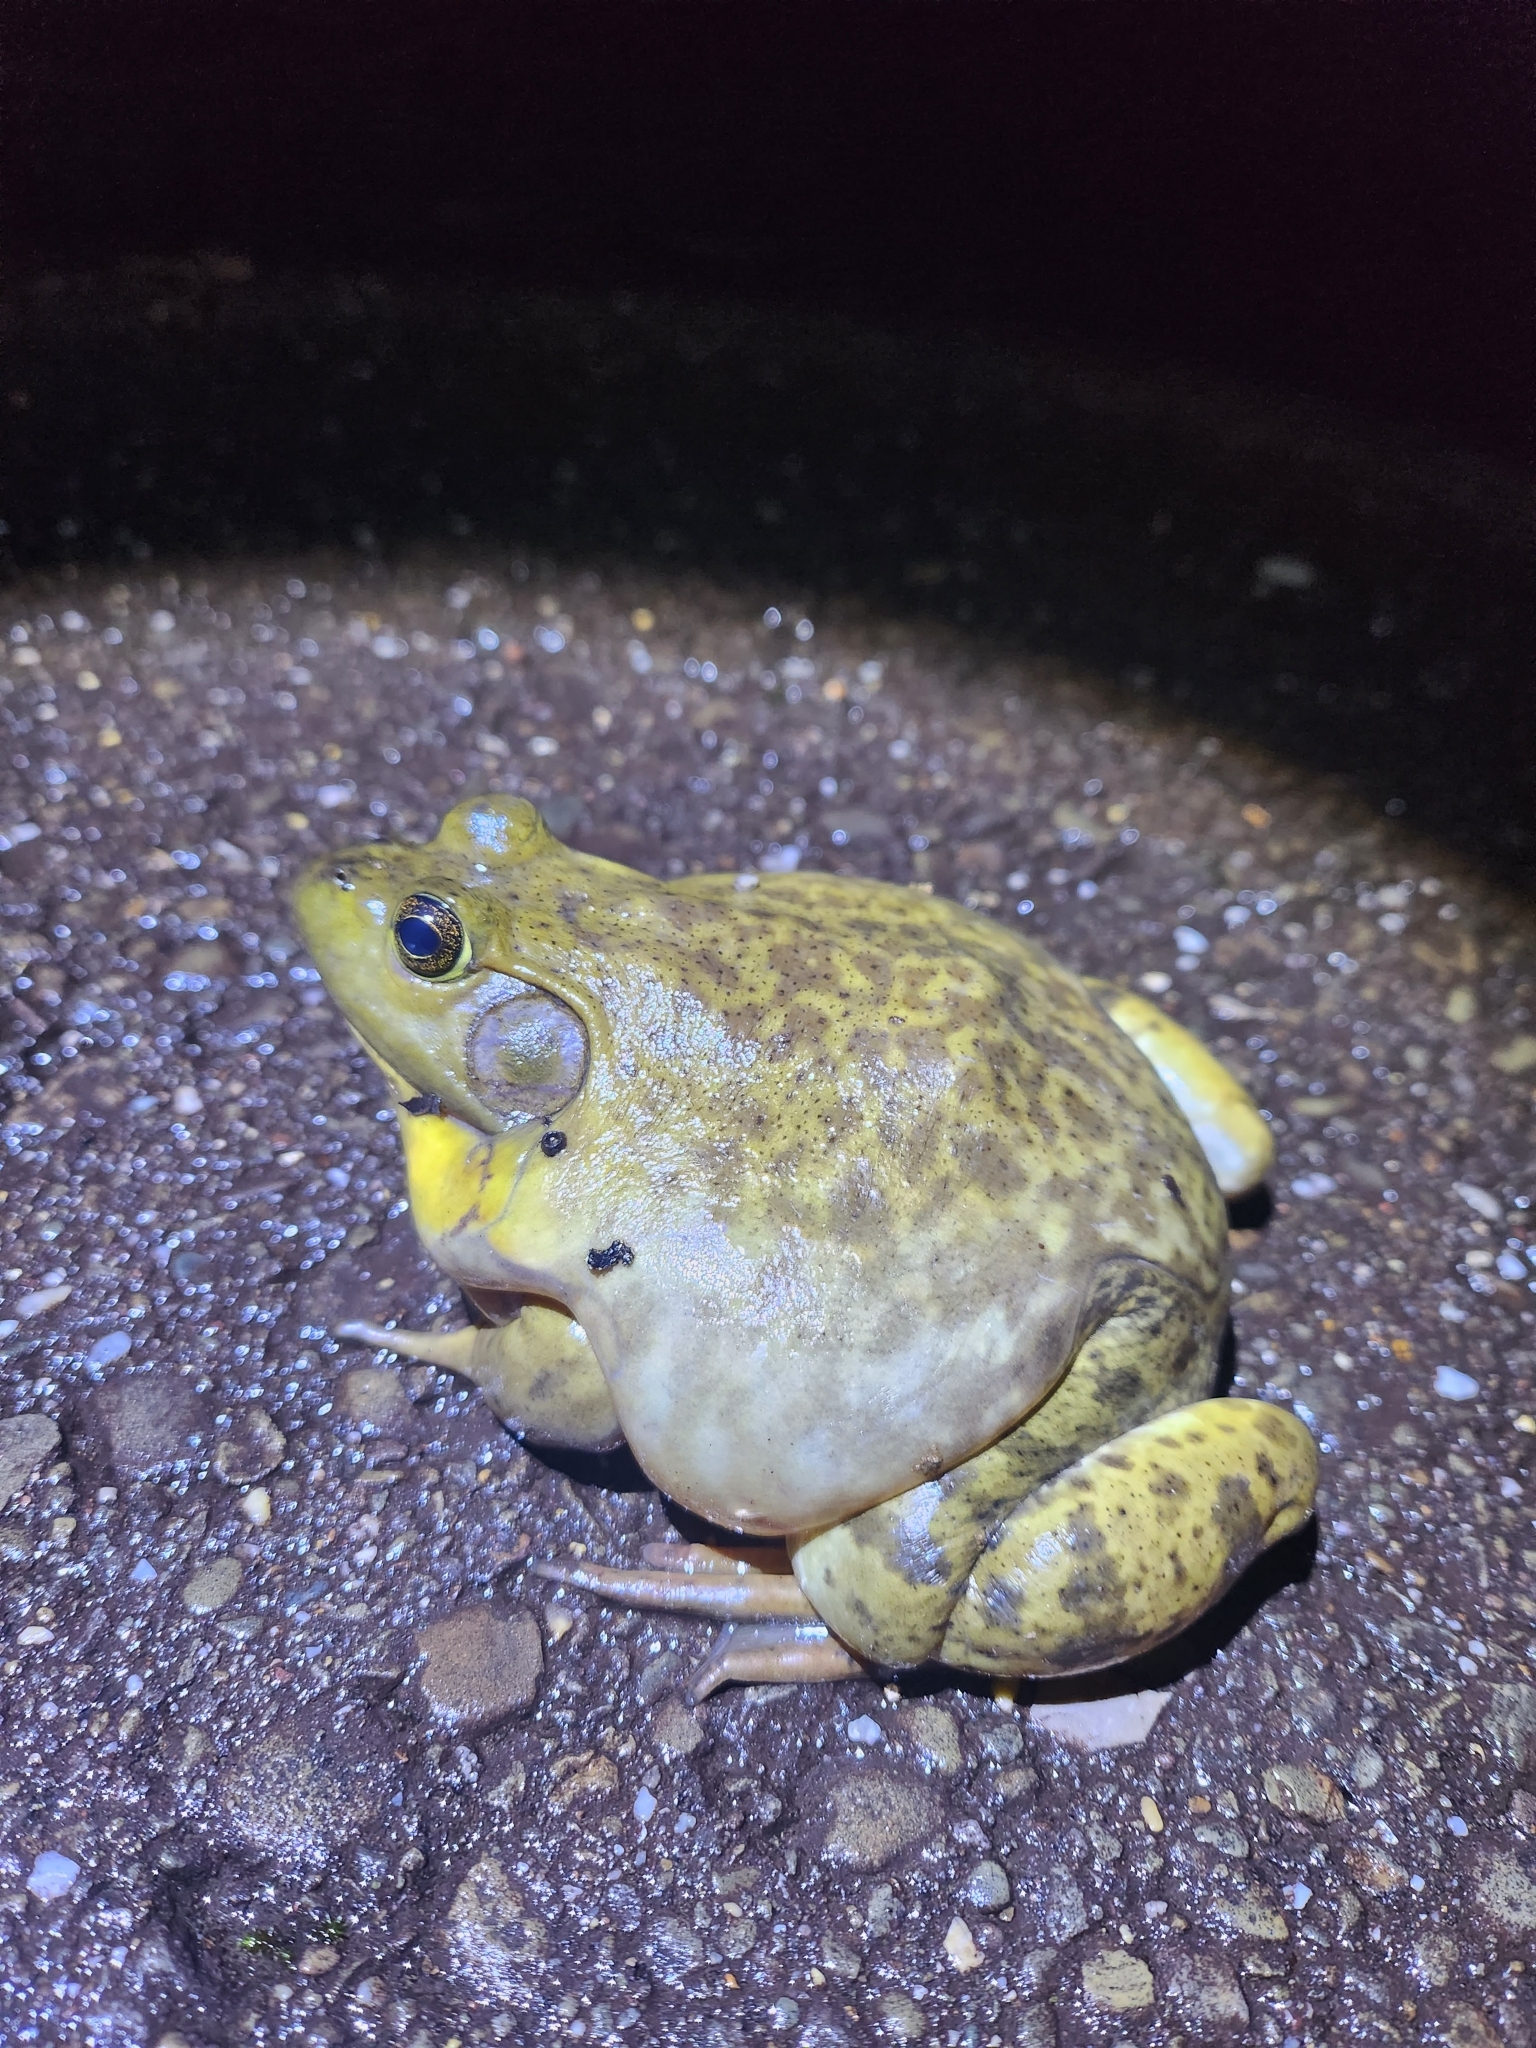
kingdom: Animalia
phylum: Chordata
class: Amphibia
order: Anura
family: Ranidae
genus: Lithobates
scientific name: Lithobates catesbeianus
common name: American bullfrog
